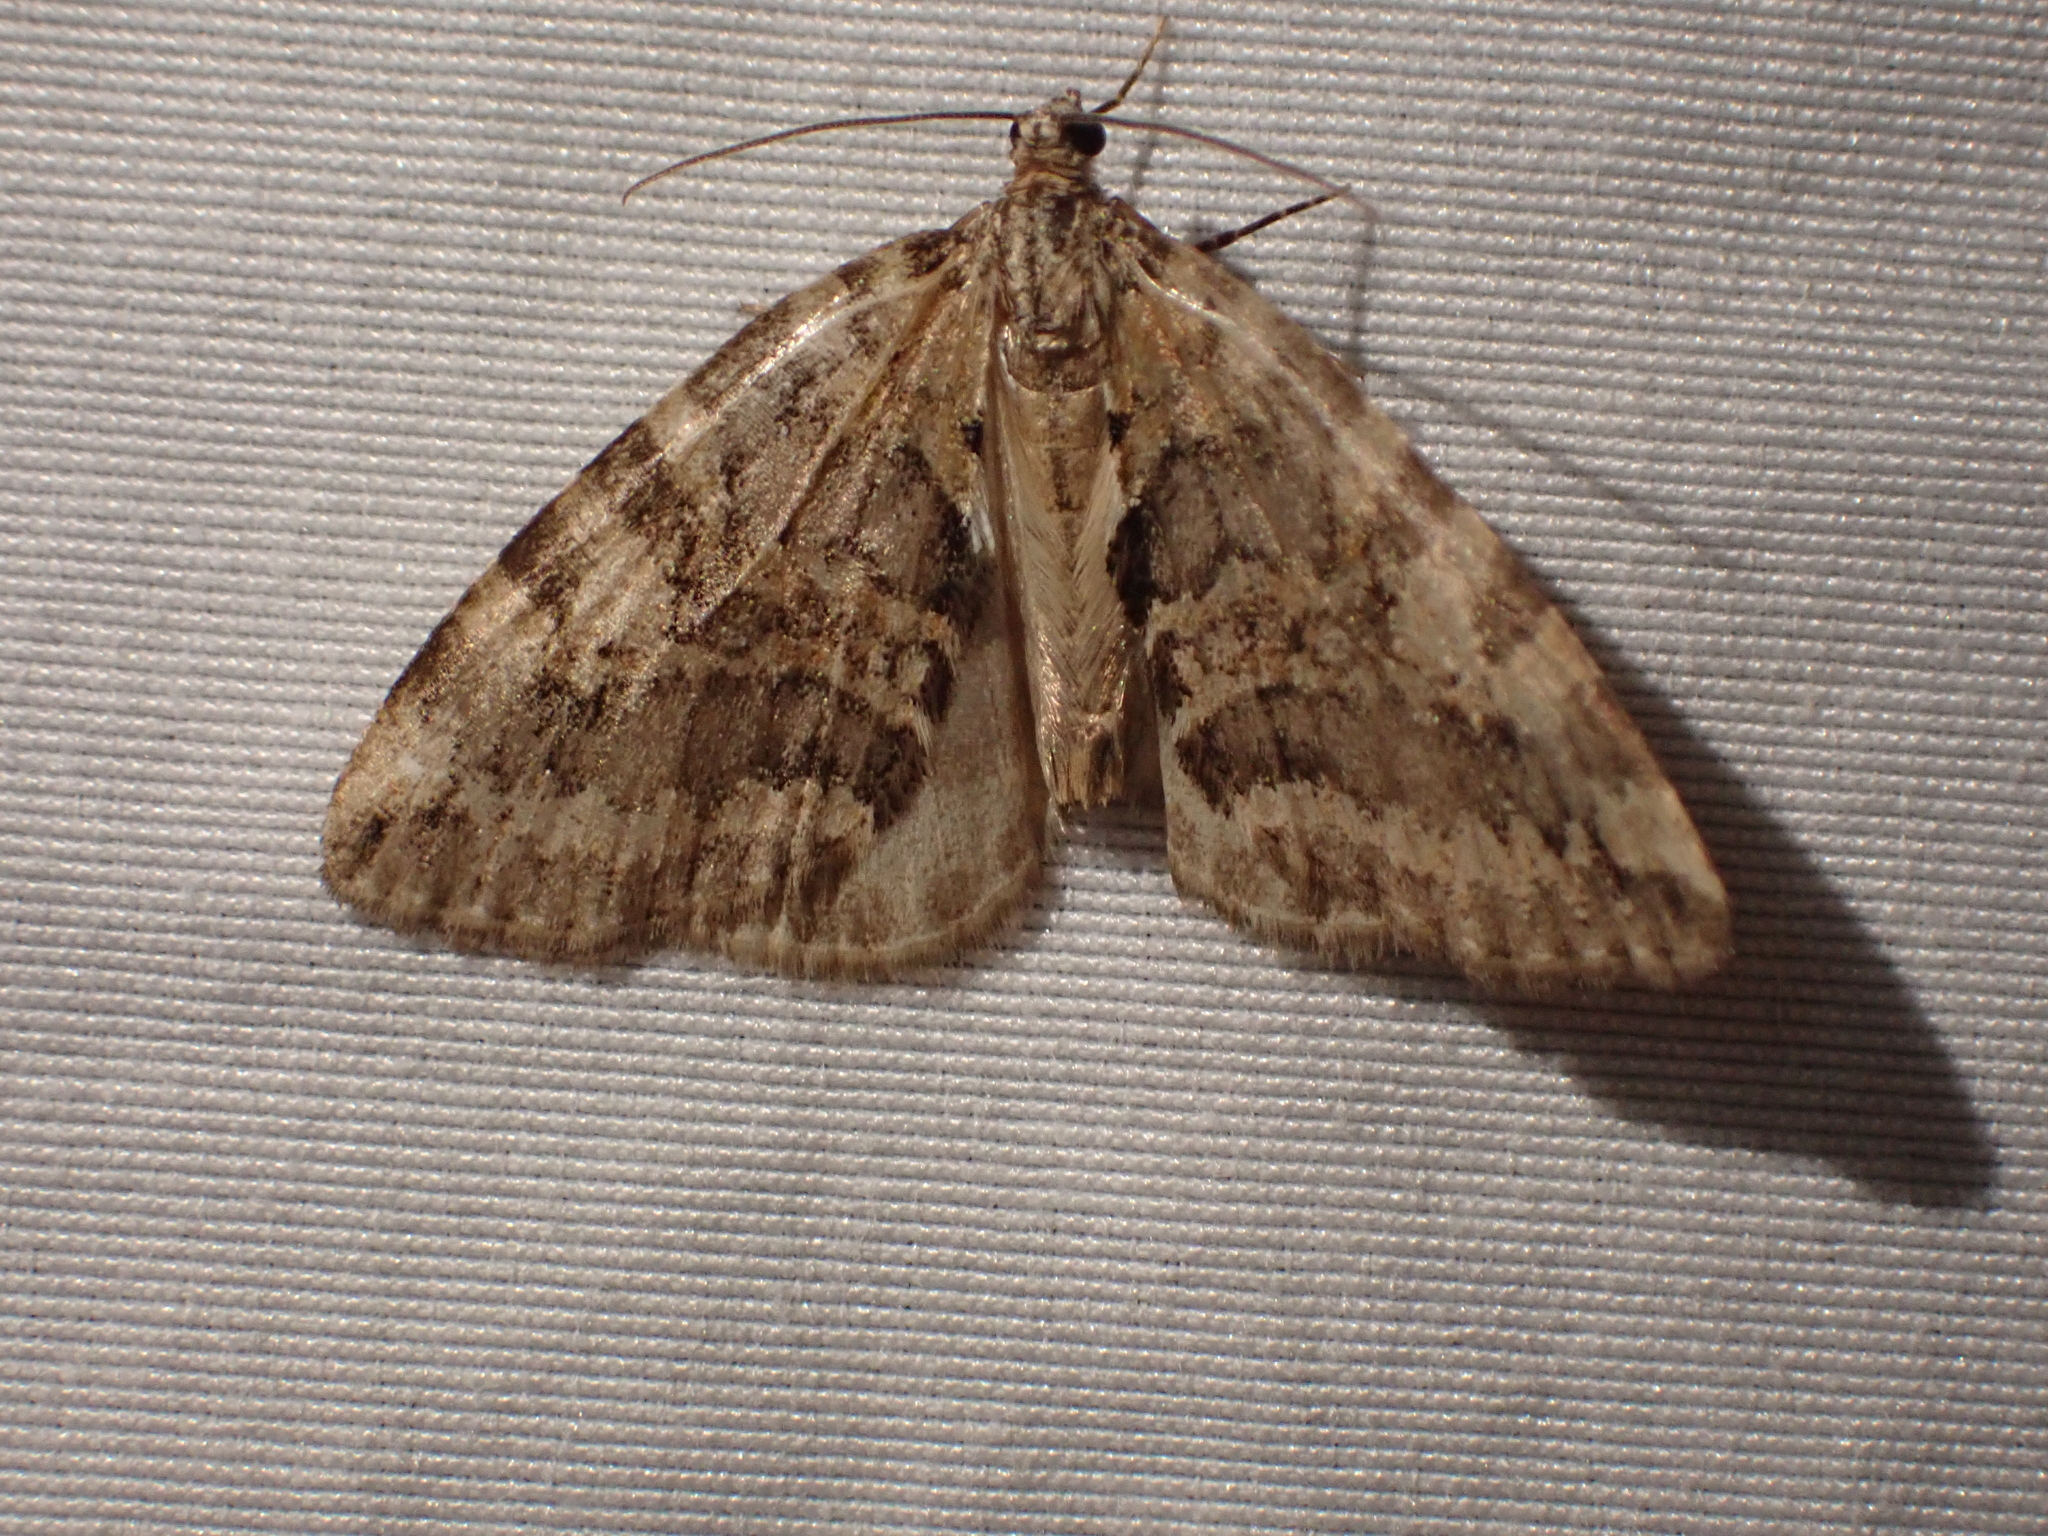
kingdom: Animalia
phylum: Arthropoda
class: Insecta
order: Lepidoptera
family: Geometridae
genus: Hydriomena
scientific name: Hydriomena nubilofasciata
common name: Oak winter highflier moth
